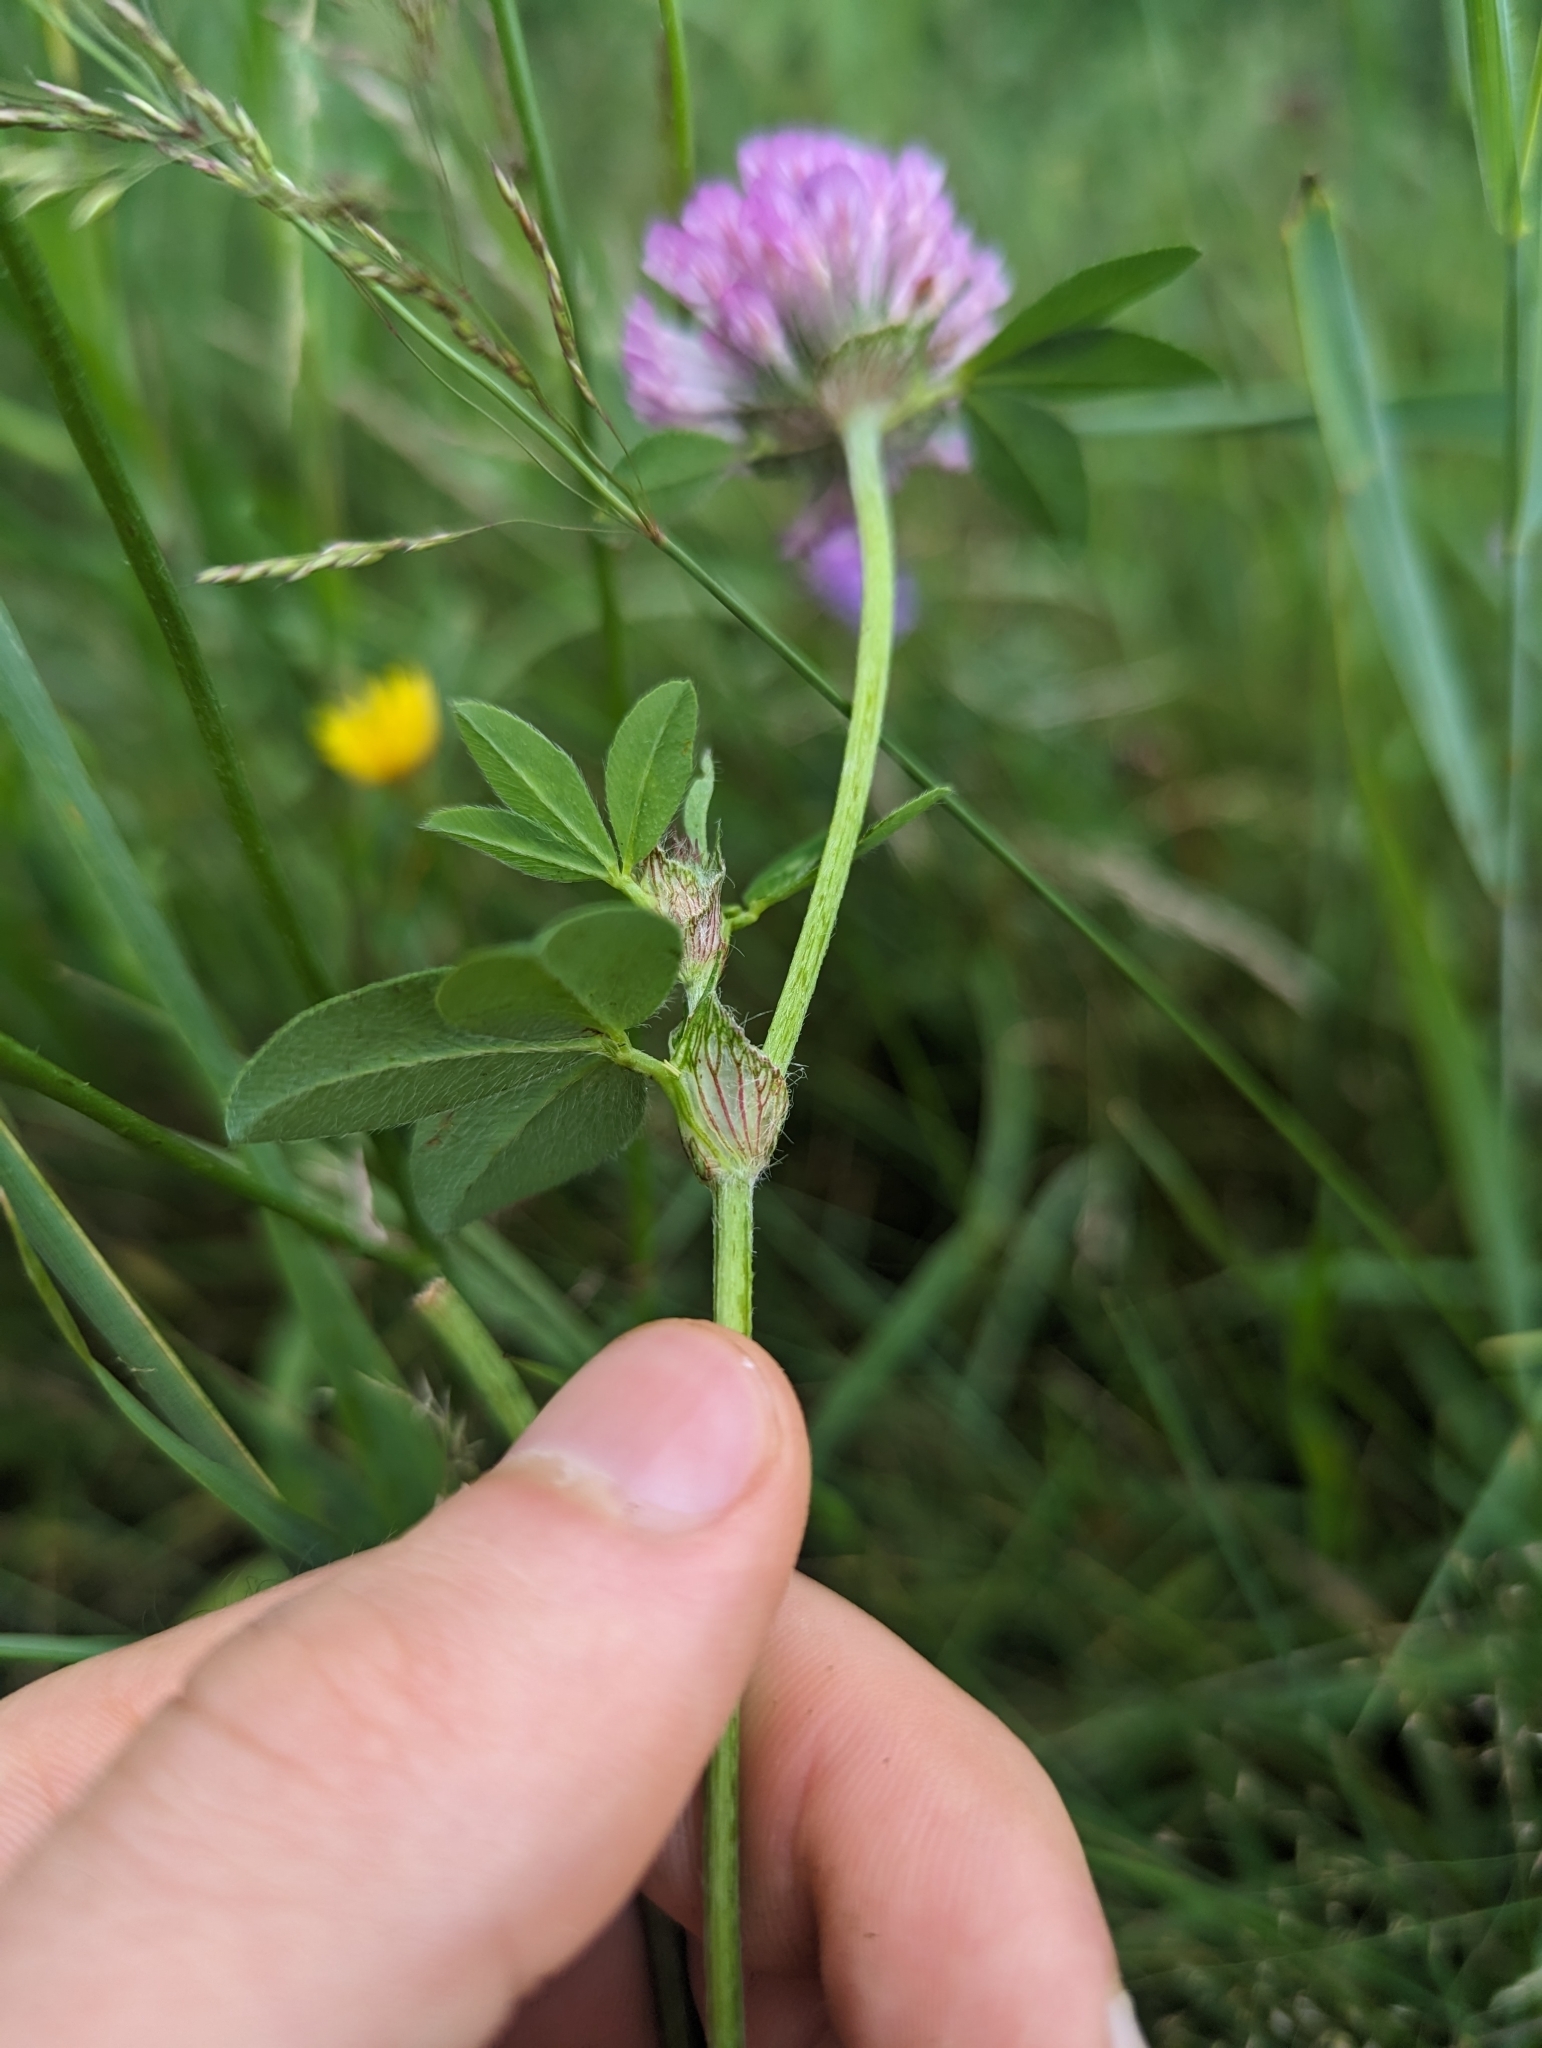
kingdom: Plantae
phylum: Tracheophyta
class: Magnoliopsida
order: Fabales
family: Fabaceae
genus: Trifolium
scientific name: Trifolium pratense
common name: Red clover
